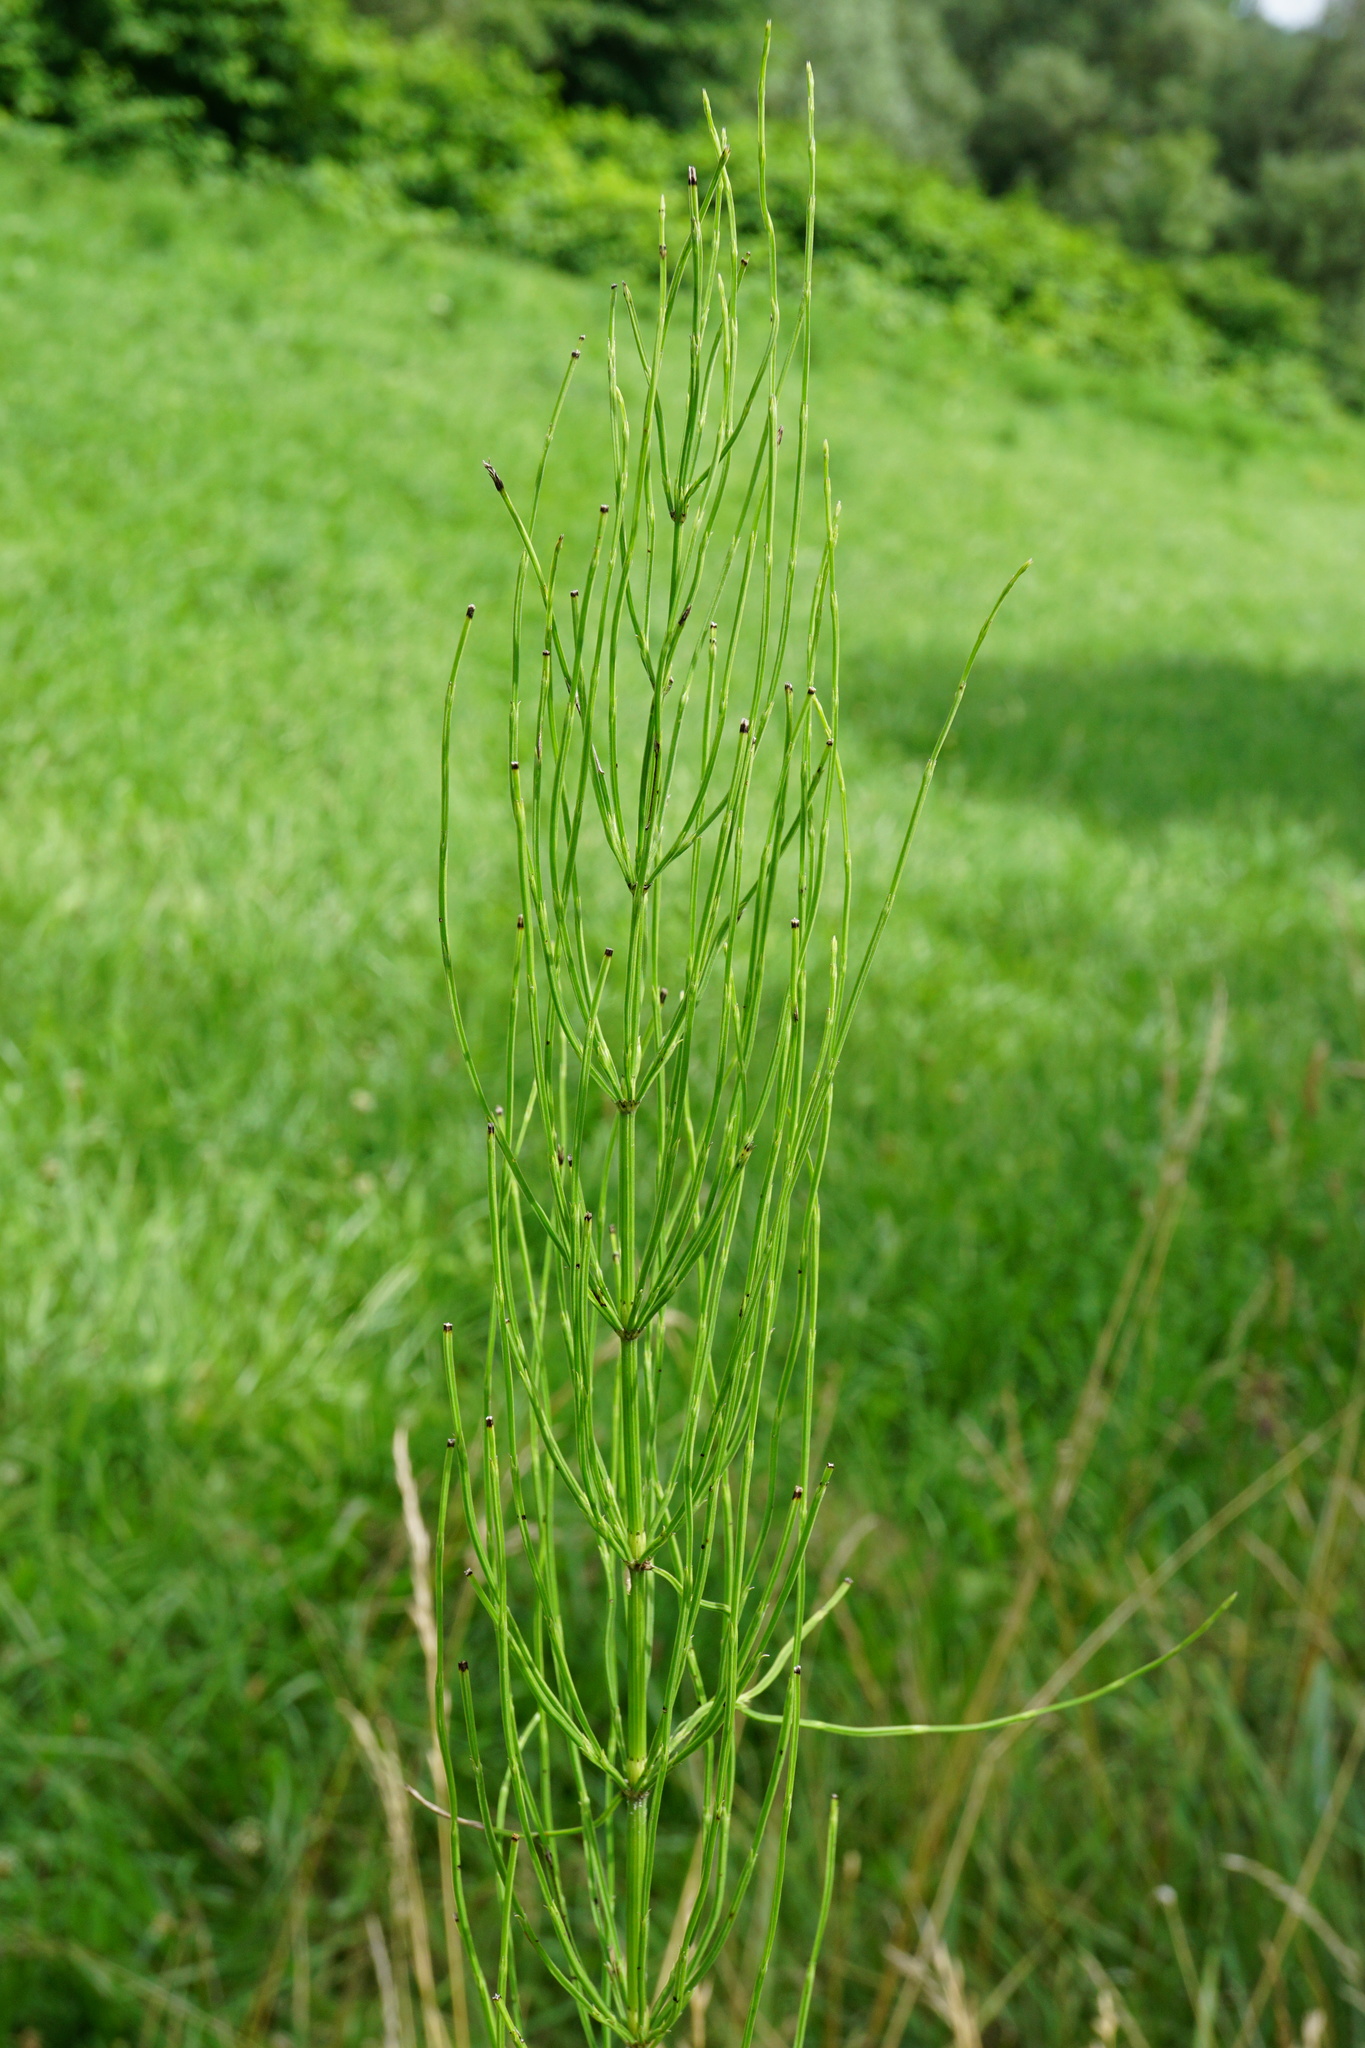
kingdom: Plantae
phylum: Tracheophyta
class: Polypodiopsida
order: Equisetales
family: Equisetaceae
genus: Equisetum
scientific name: Equisetum arvense
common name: Field horsetail
